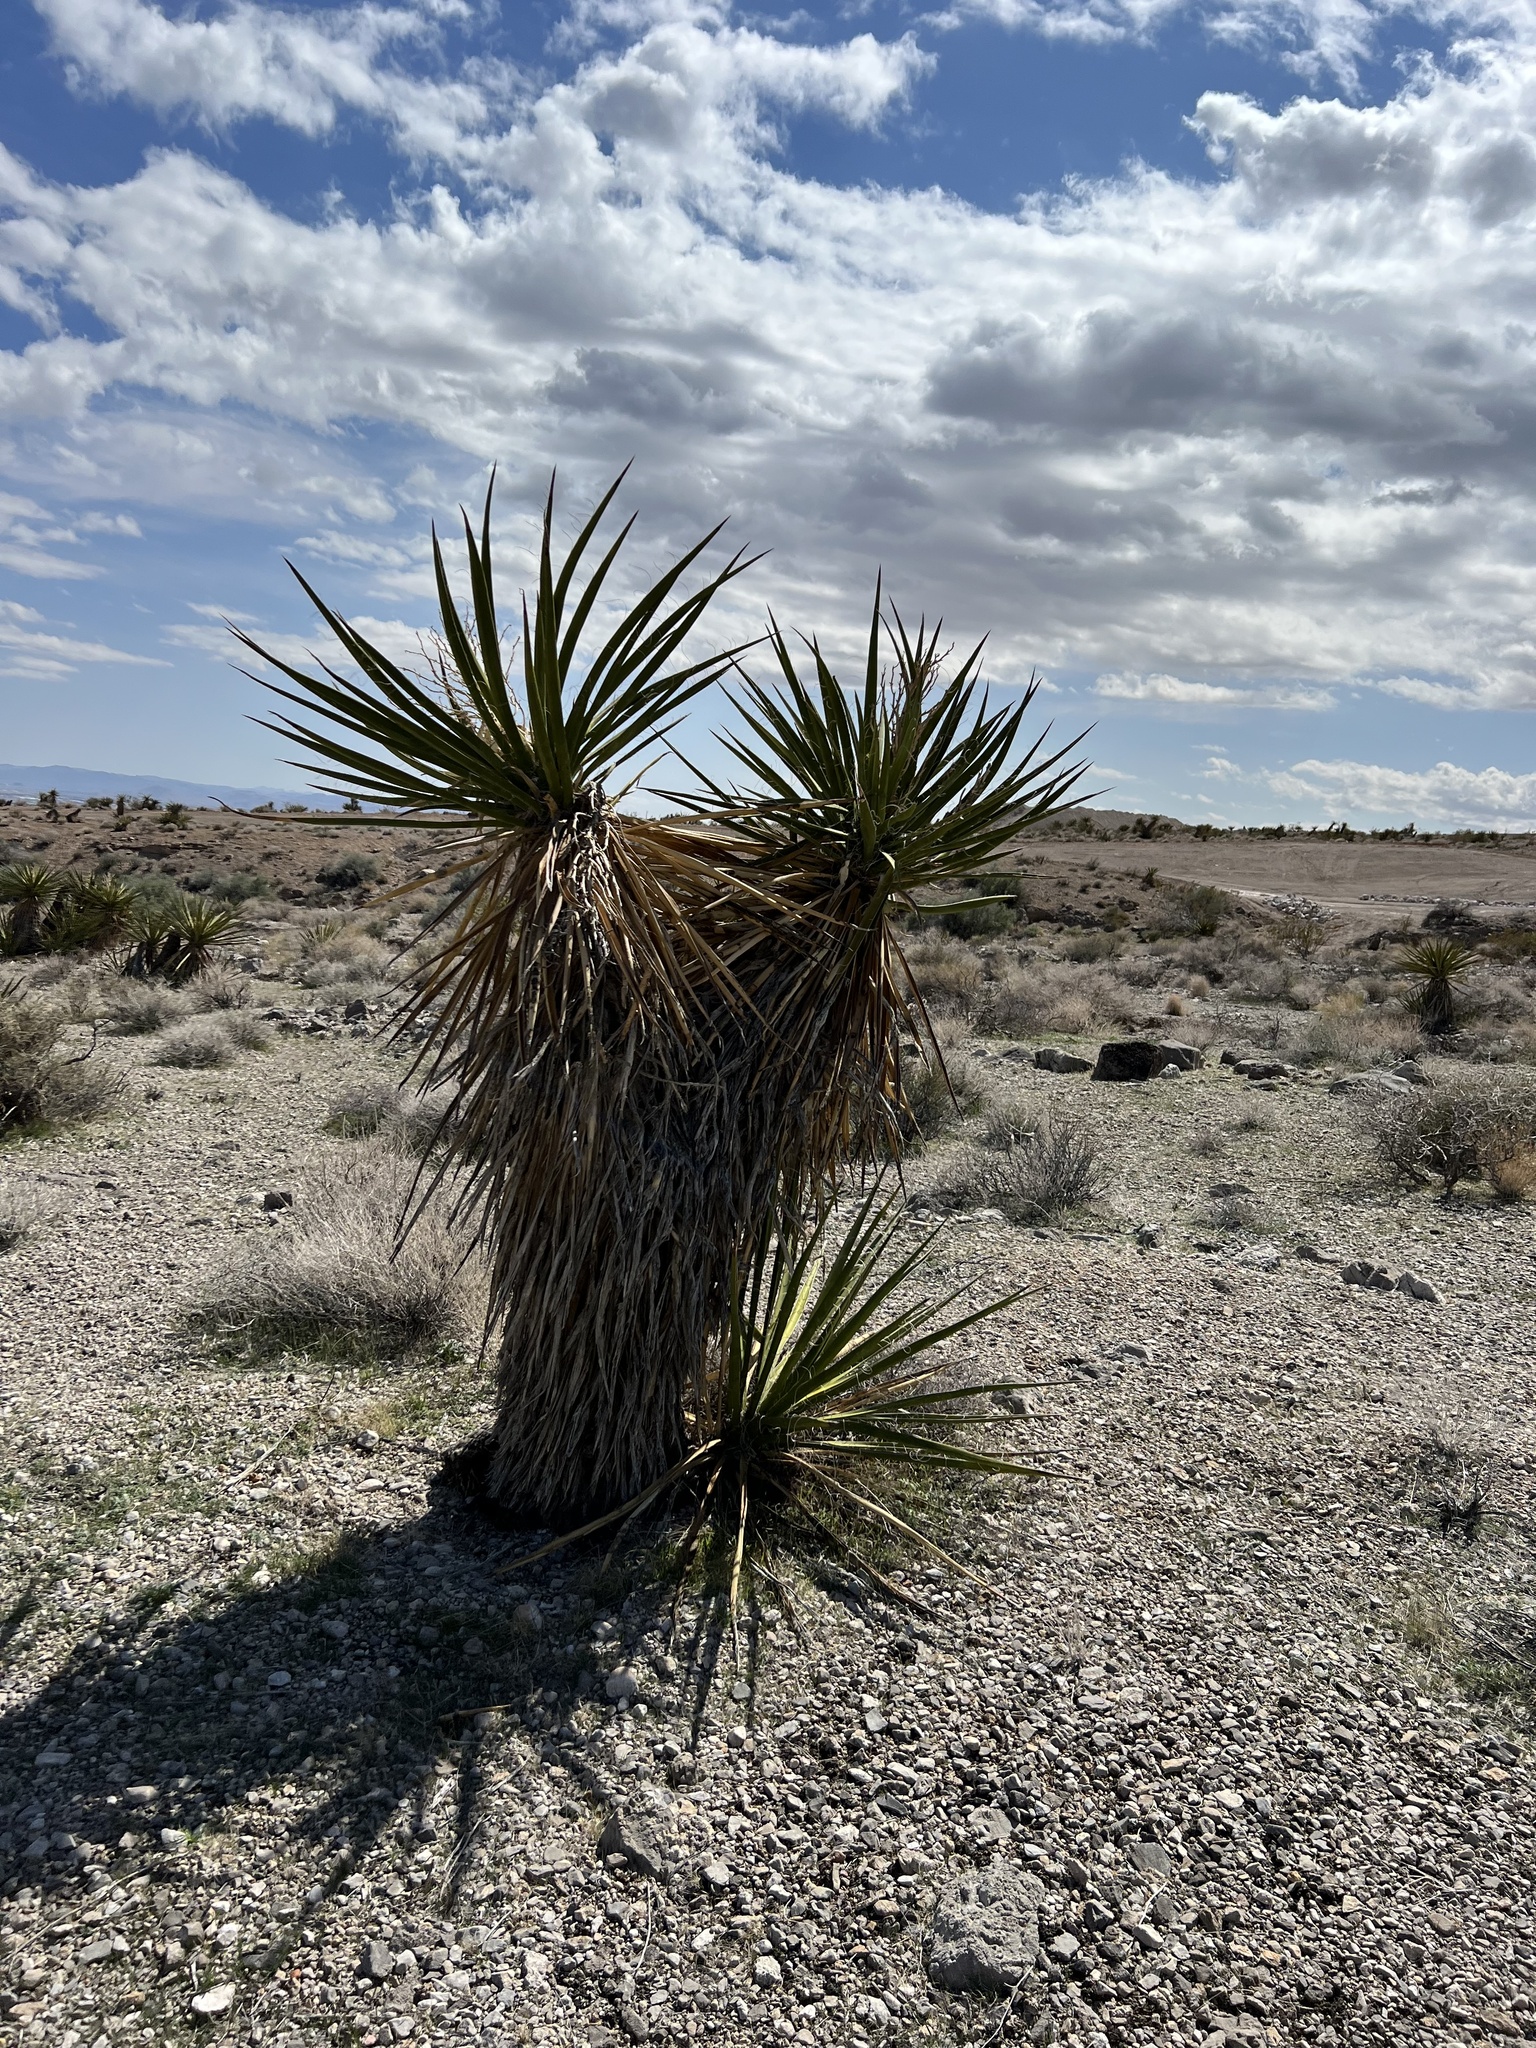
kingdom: Plantae
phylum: Tracheophyta
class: Liliopsida
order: Asparagales
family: Asparagaceae
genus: Yucca
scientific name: Yucca schidigera
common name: Mojave yucca
